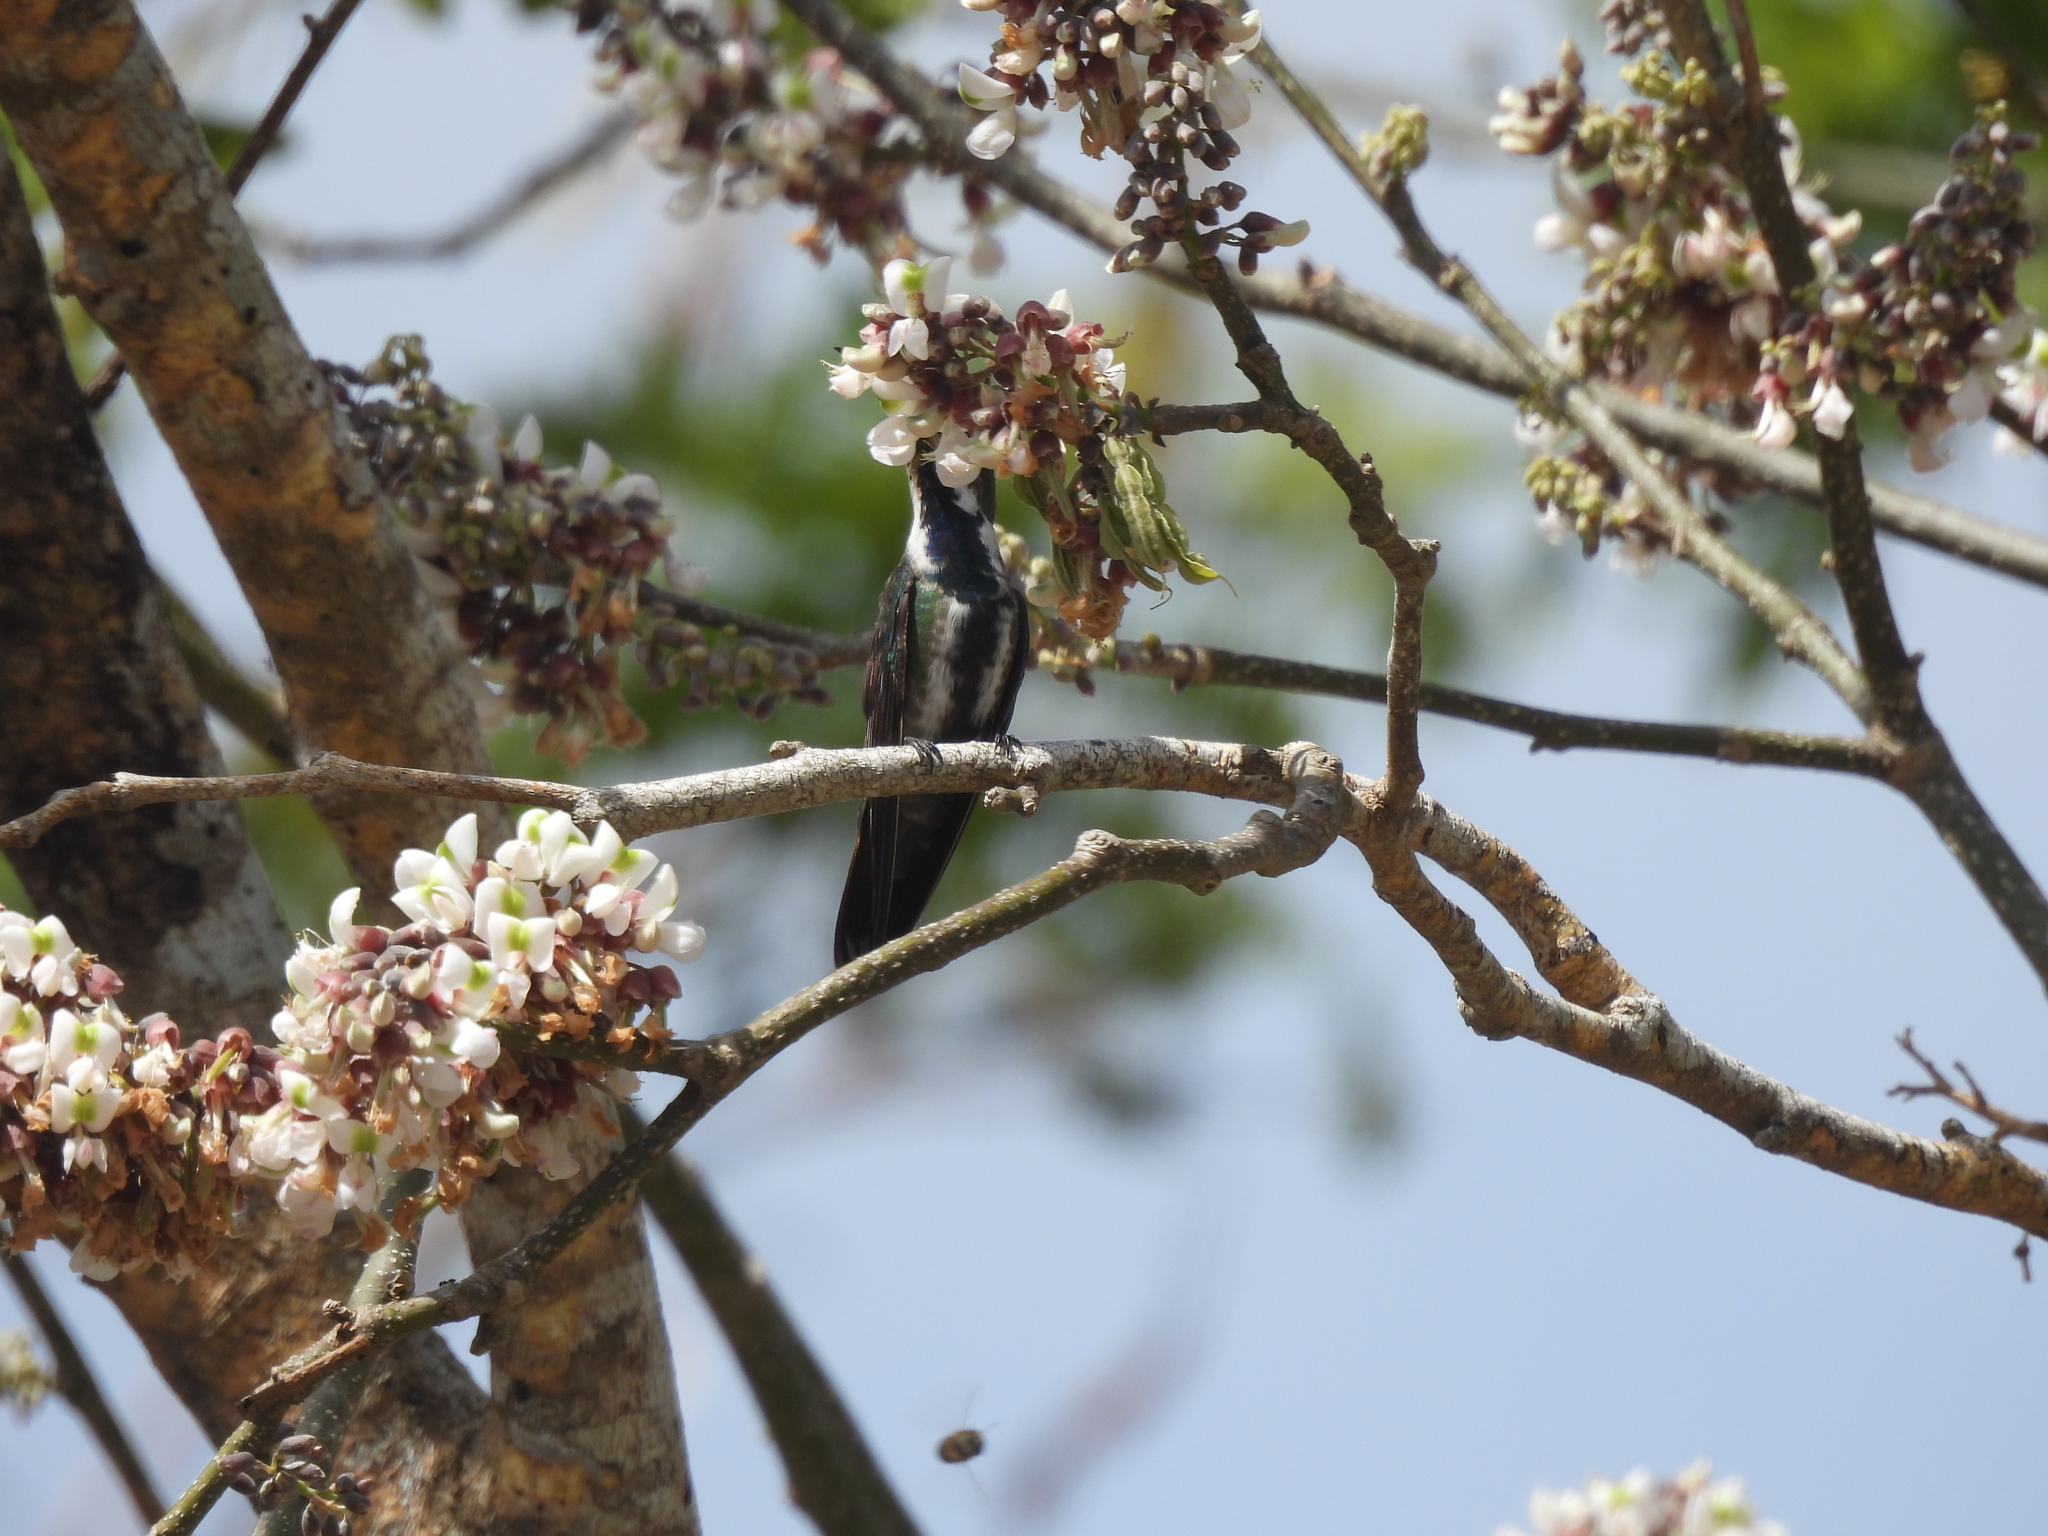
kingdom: Animalia
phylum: Chordata
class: Aves
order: Apodiformes
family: Trochilidae
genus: Anthracothorax
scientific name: Anthracothorax prevostii
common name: Green-breasted mango
